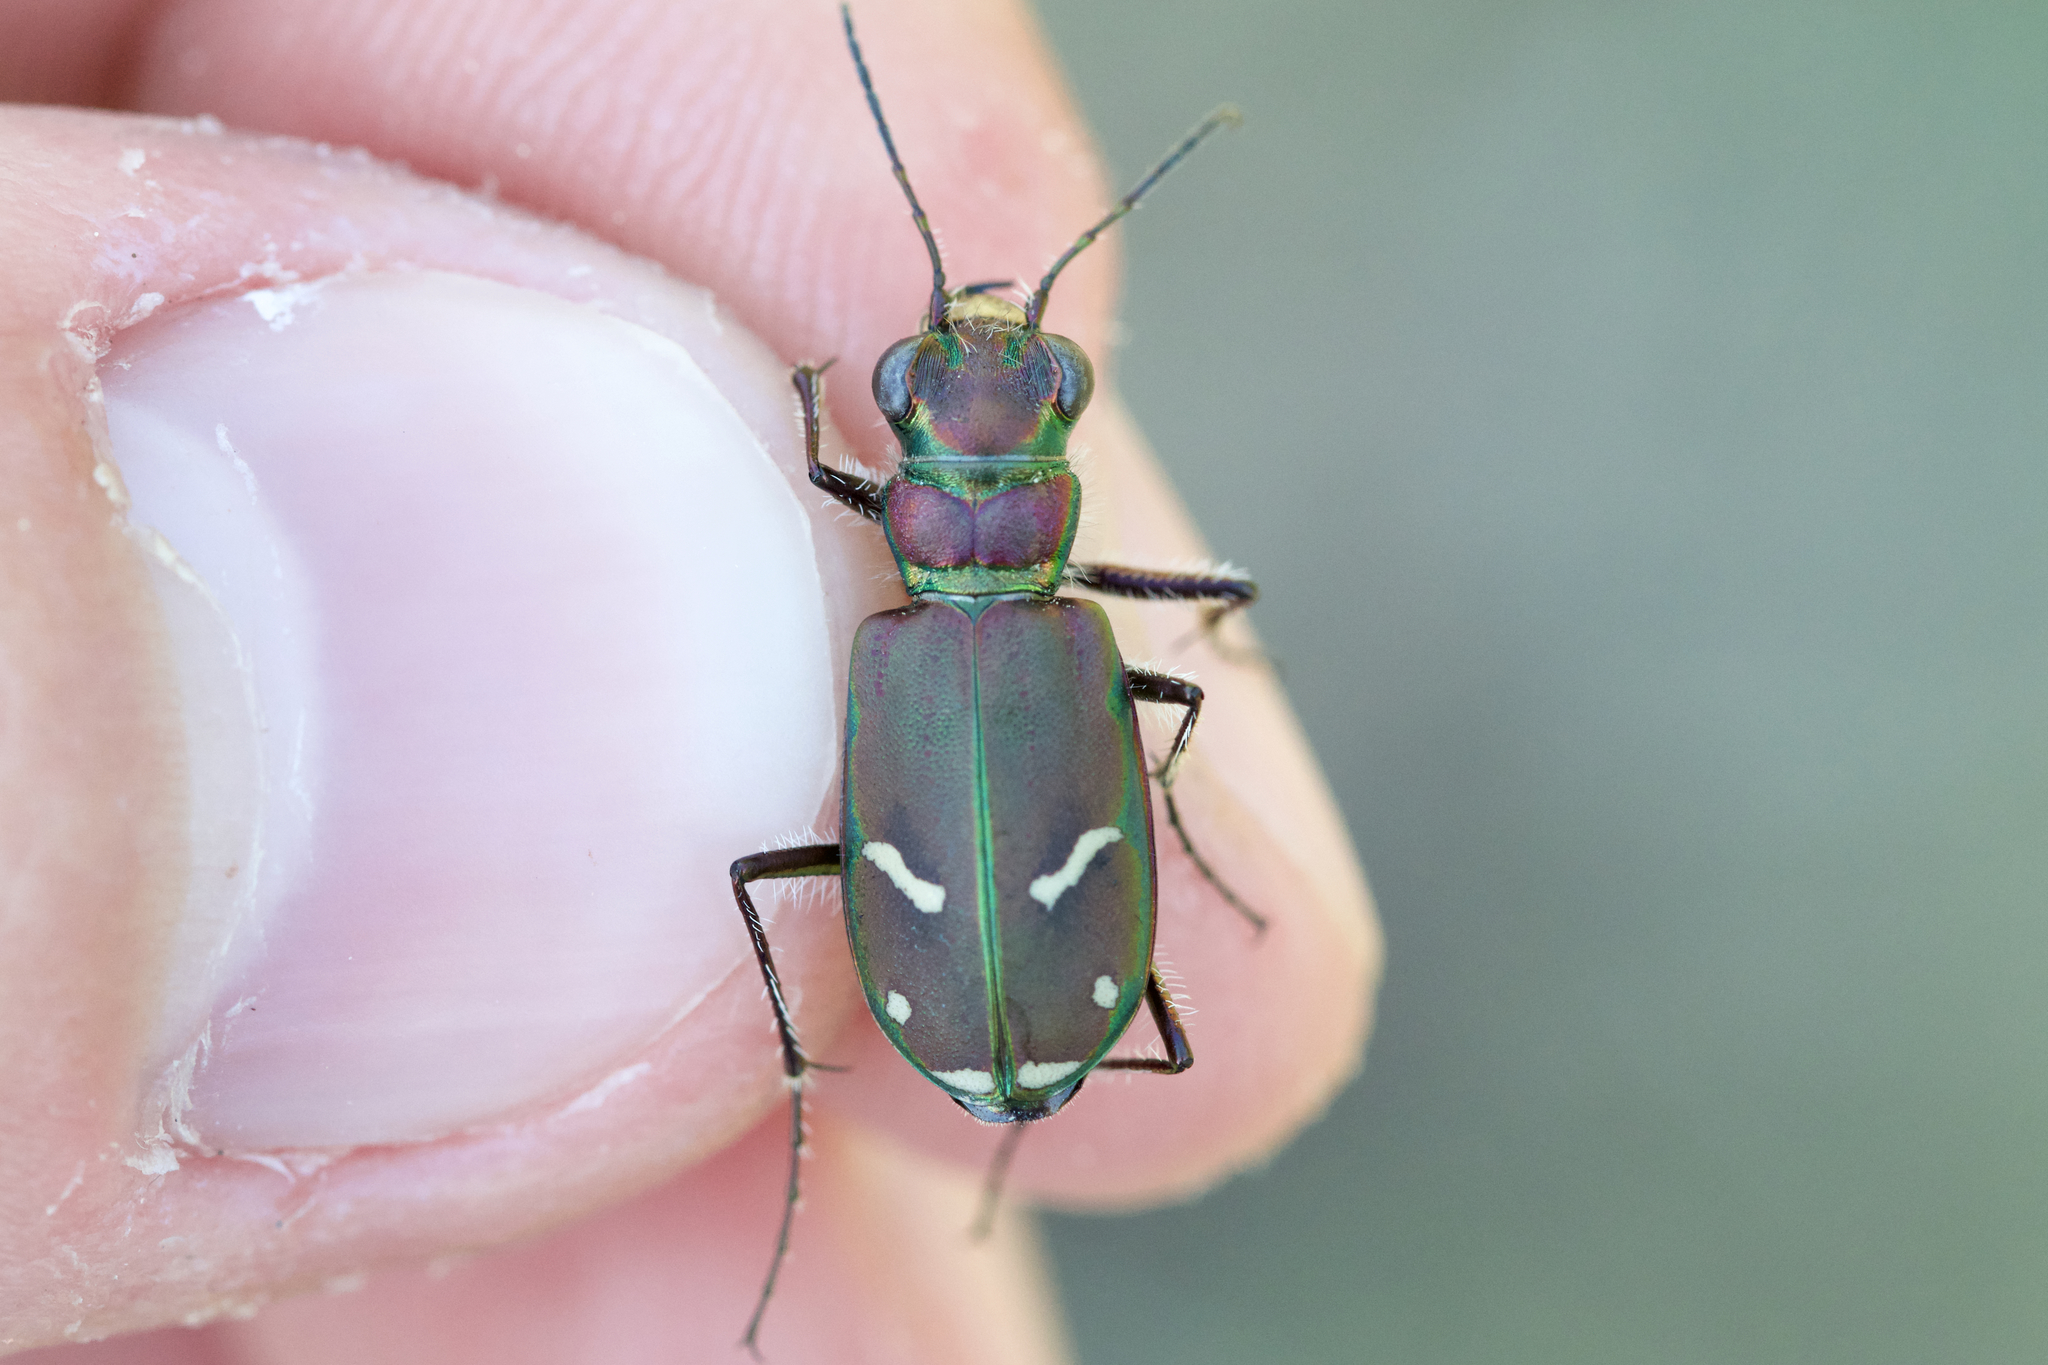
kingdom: Animalia
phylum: Arthropoda
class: Insecta
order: Coleoptera
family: Carabidae
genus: Cicindela
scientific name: Cicindela purpurea
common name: Cow path tiger beetle
